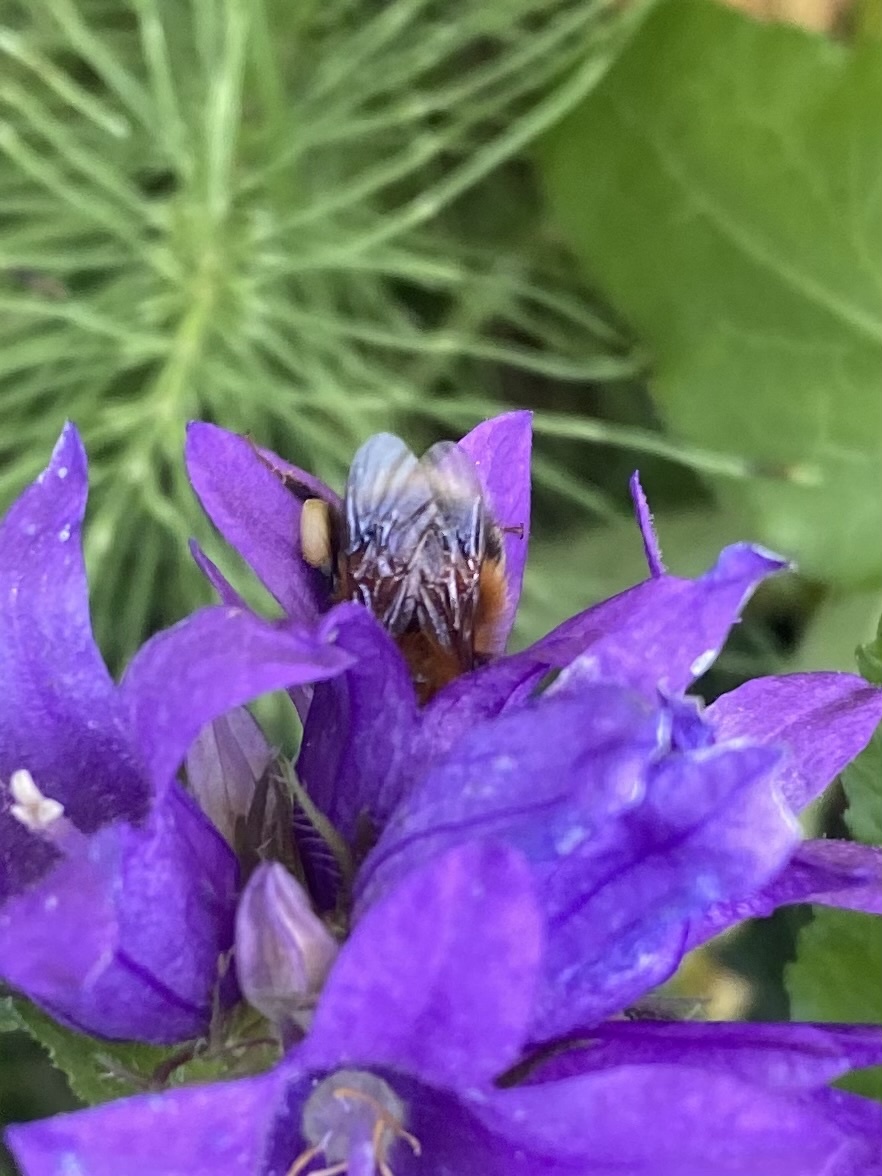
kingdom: Animalia
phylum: Arthropoda
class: Insecta
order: Hymenoptera
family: Apidae
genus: Bombus
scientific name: Bombus hypnorum
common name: New garden bumblebee
